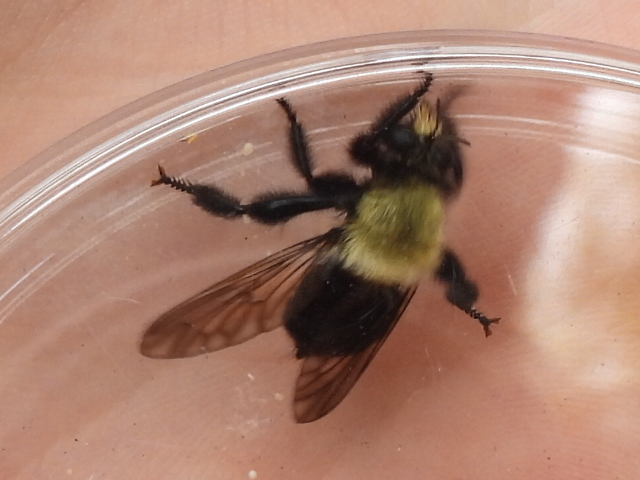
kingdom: Animalia
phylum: Arthropoda
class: Insecta
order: Diptera
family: Asilidae
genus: Laphria
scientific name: Laphria flavicollis
